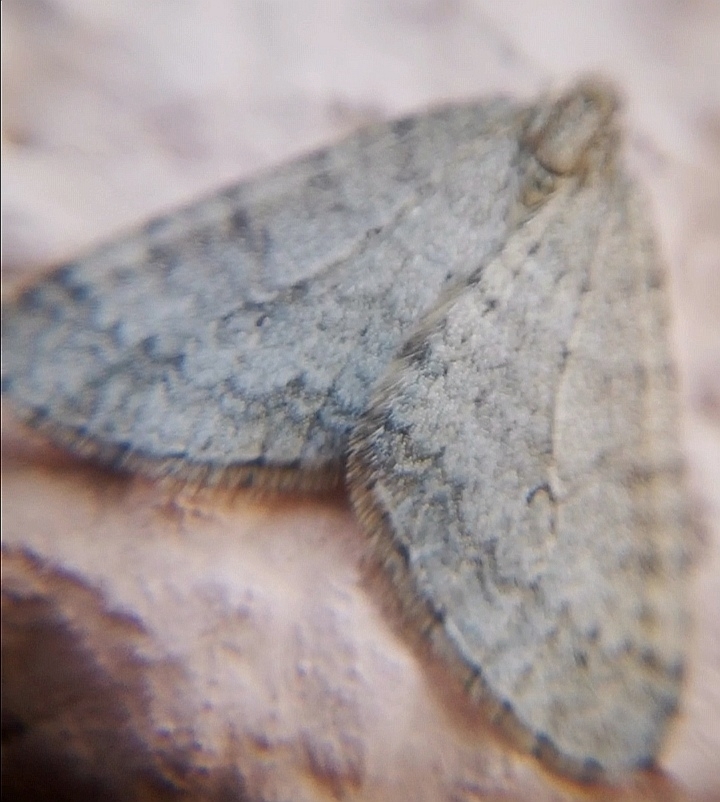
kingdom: Animalia
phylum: Arthropoda
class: Insecta
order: Lepidoptera
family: Geometridae
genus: Operophtera
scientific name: Operophtera brumata
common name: Winter moth
